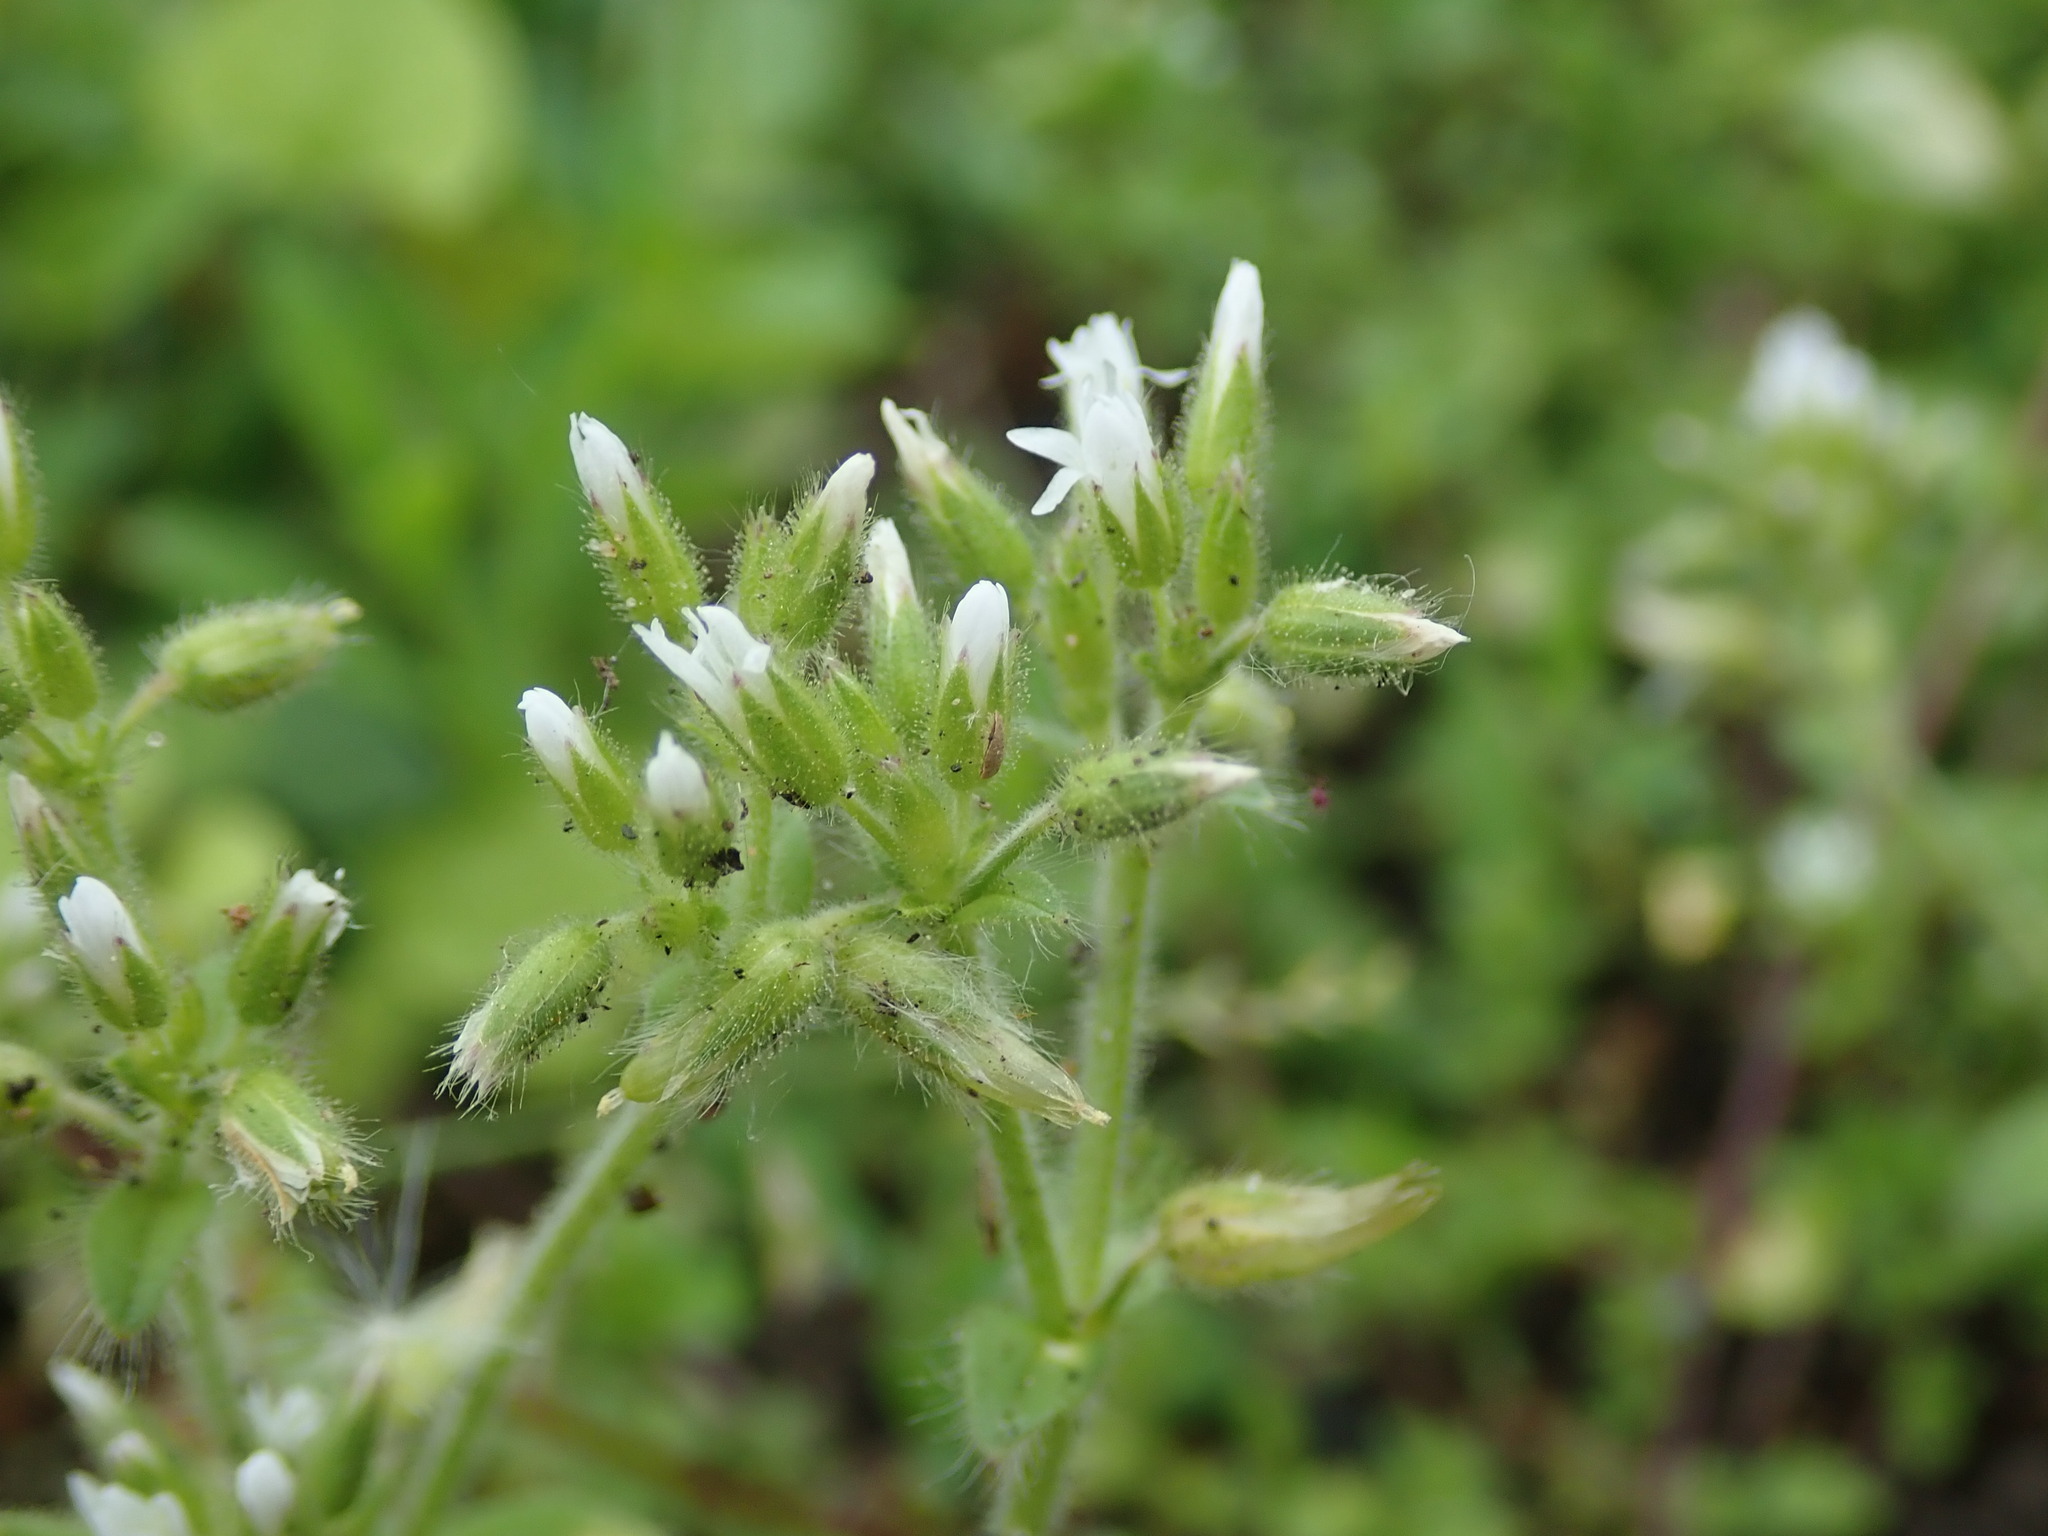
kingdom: Plantae
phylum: Tracheophyta
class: Magnoliopsida
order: Caryophyllales
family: Caryophyllaceae
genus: Cerastium
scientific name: Cerastium glomeratum
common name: Sticky chickweed
